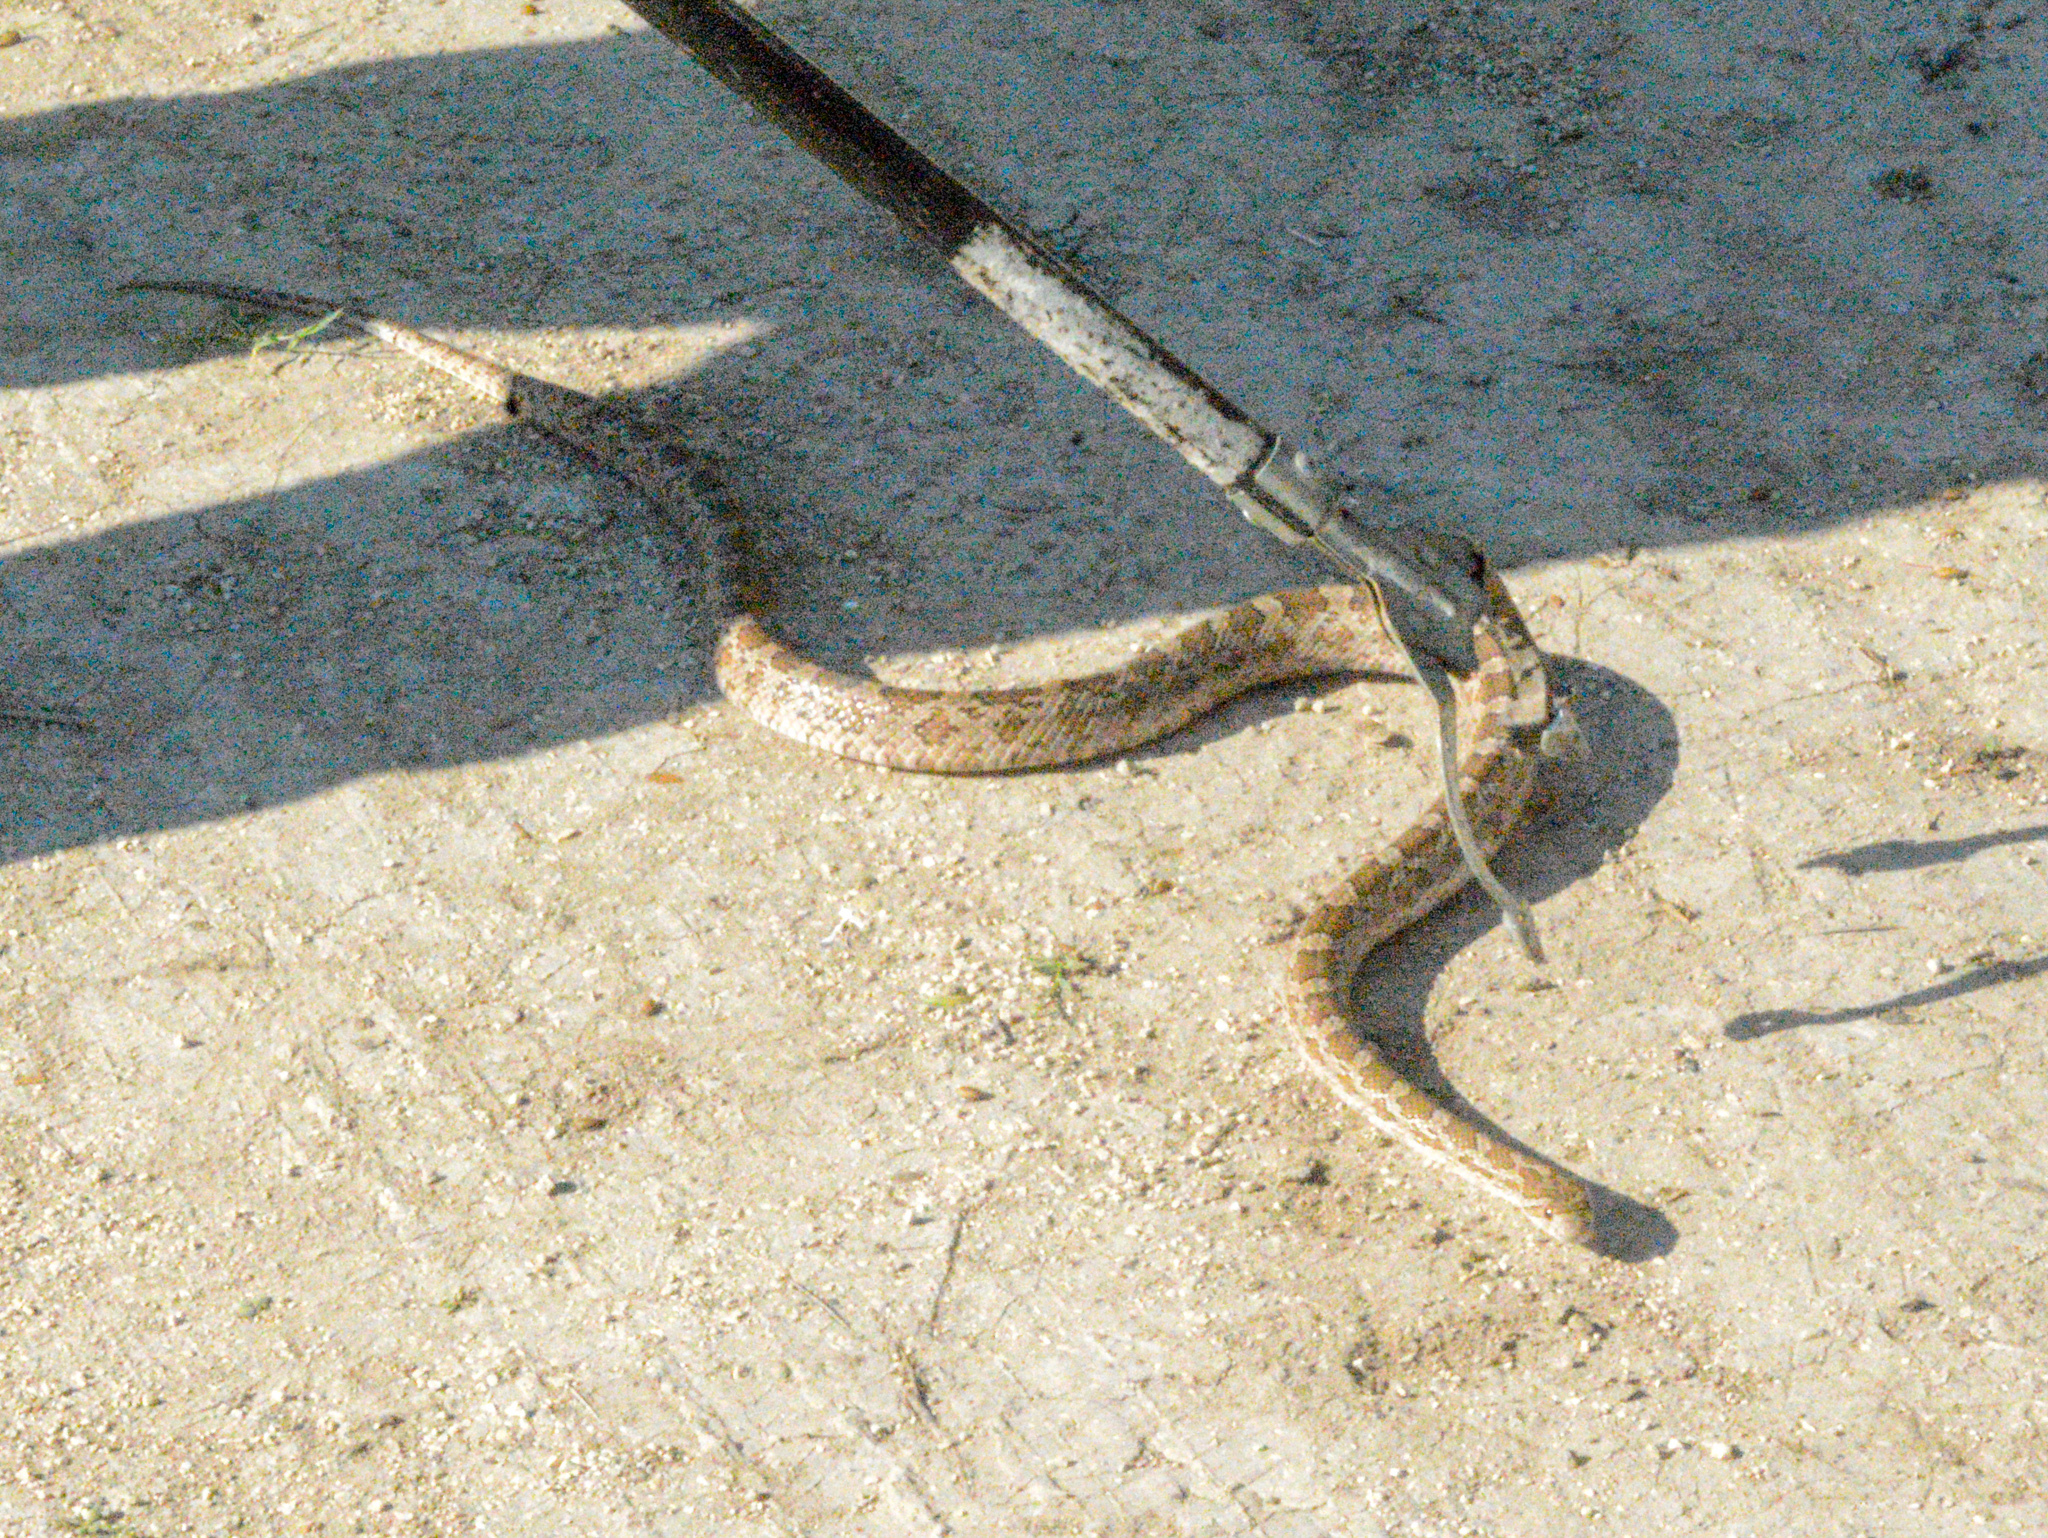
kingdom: Animalia
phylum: Chordata
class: Squamata
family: Colubridae
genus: Pantherophis
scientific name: Pantherophis emoryi
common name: Great plains rat snake
